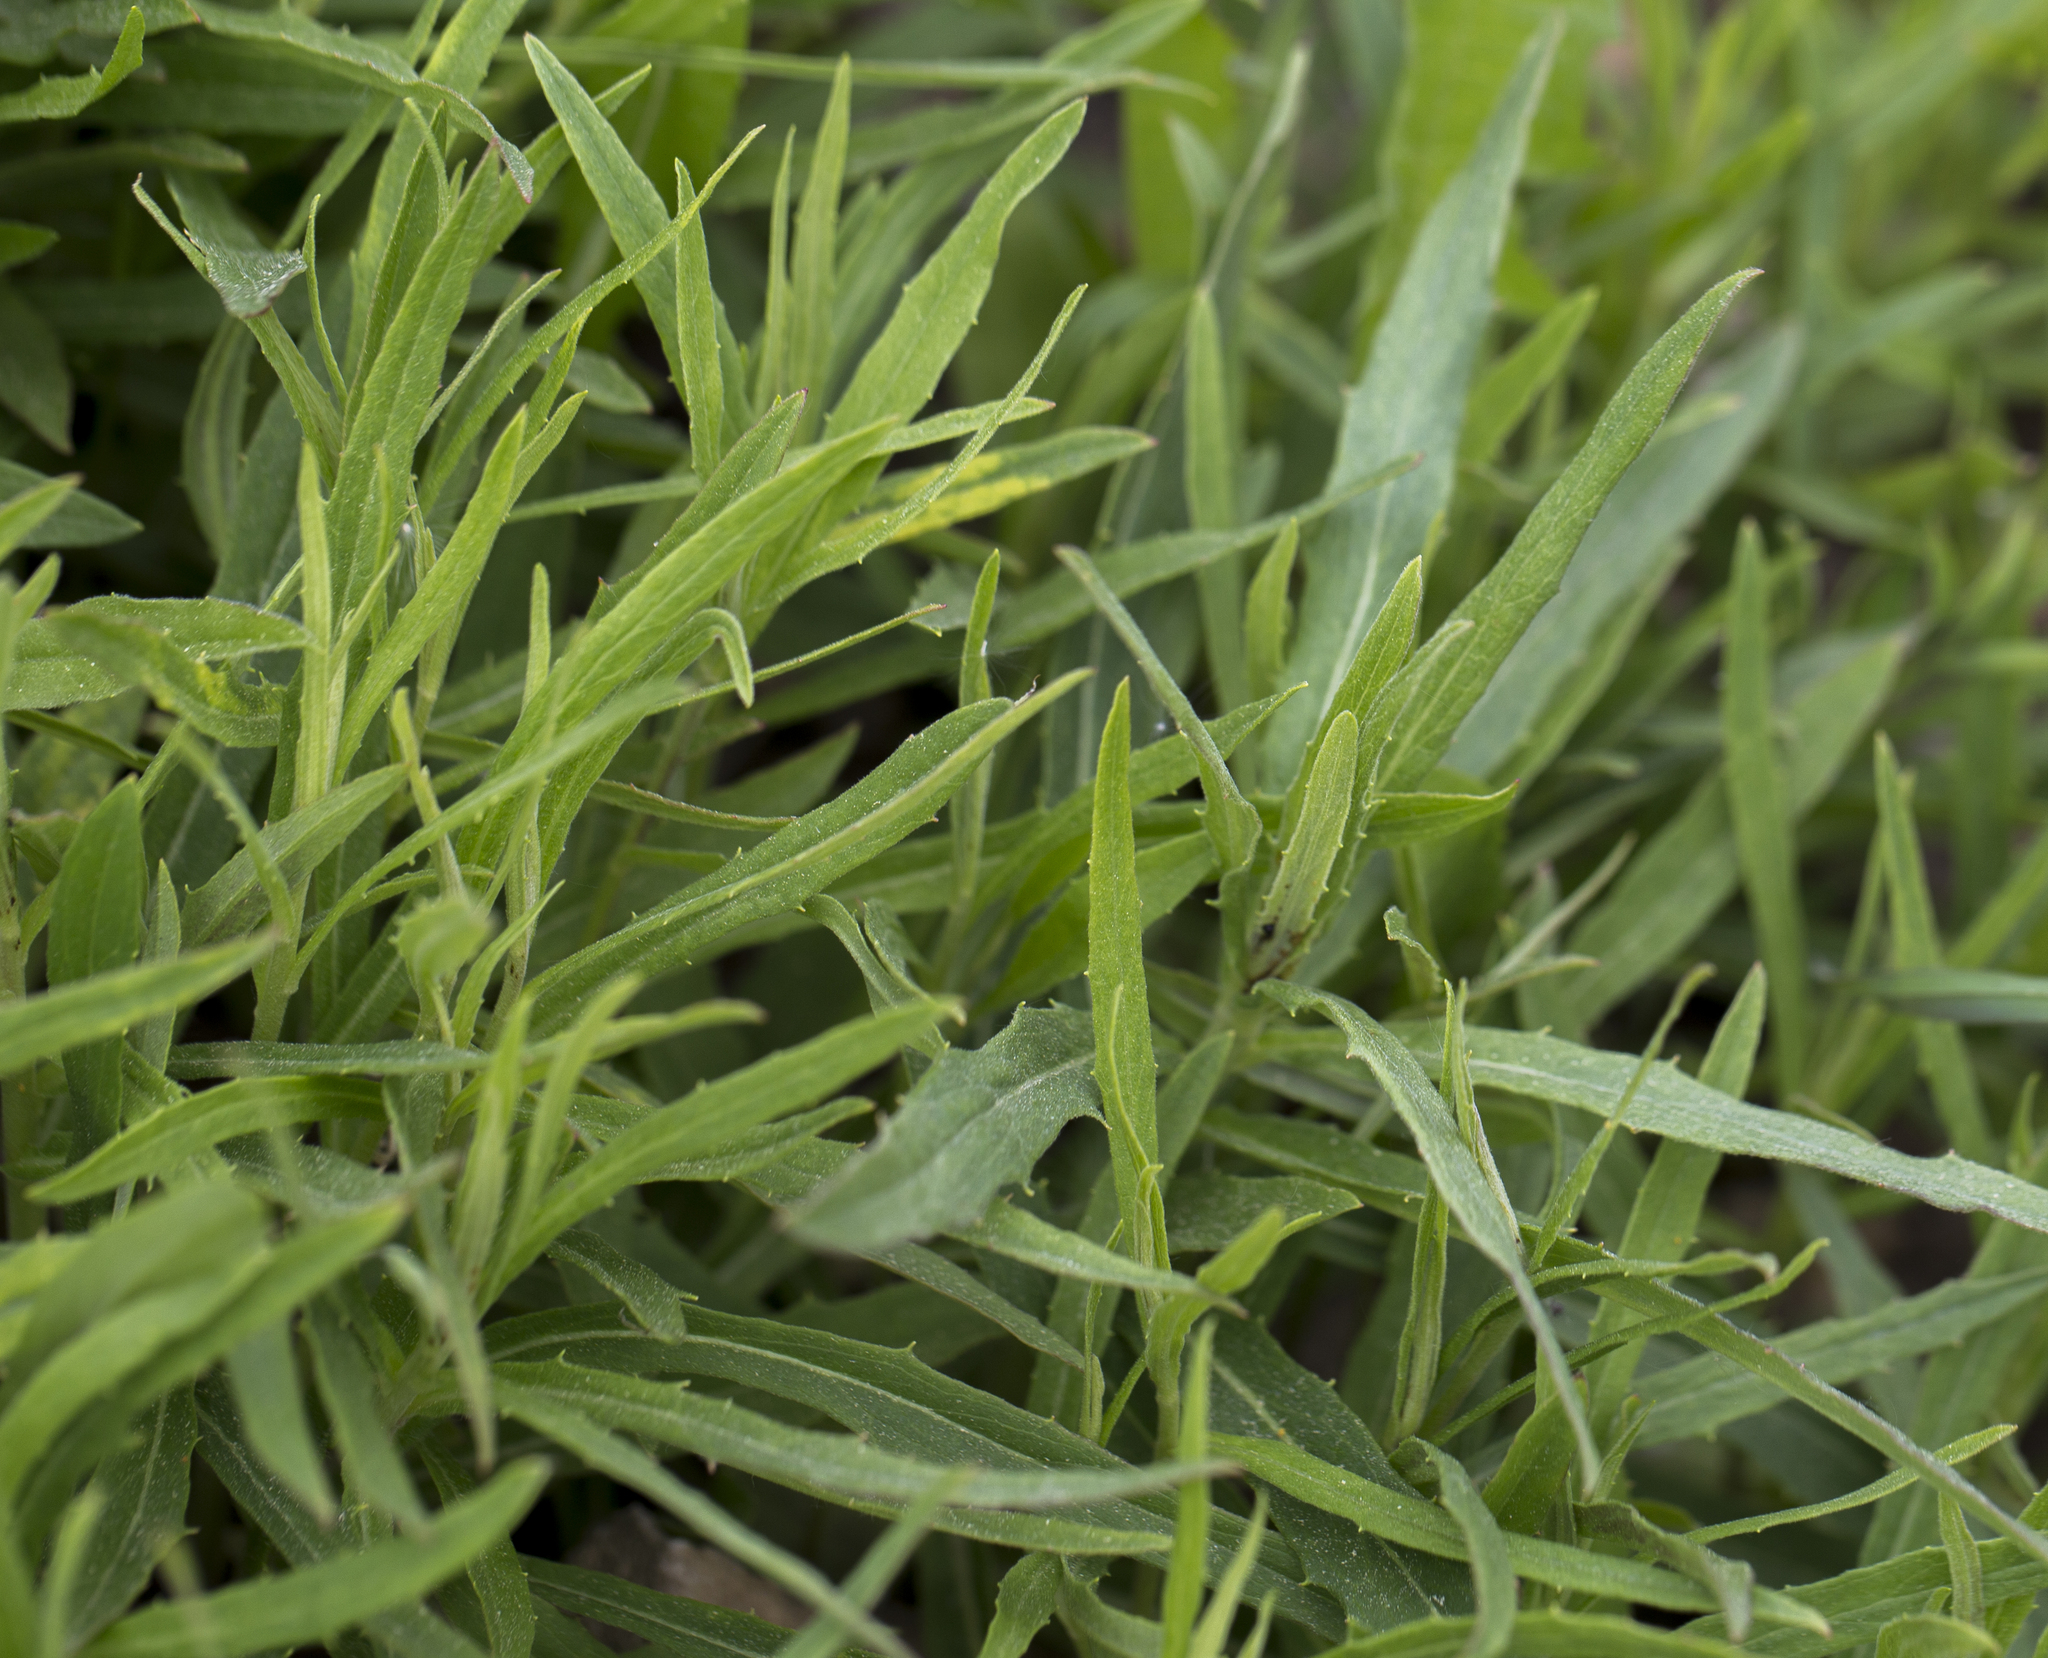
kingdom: Plantae
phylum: Tracheophyta
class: Magnoliopsida
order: Asterales
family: Asteraceae
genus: Hieracium
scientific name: Hieracium umbellatum
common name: Northern hawkweed
